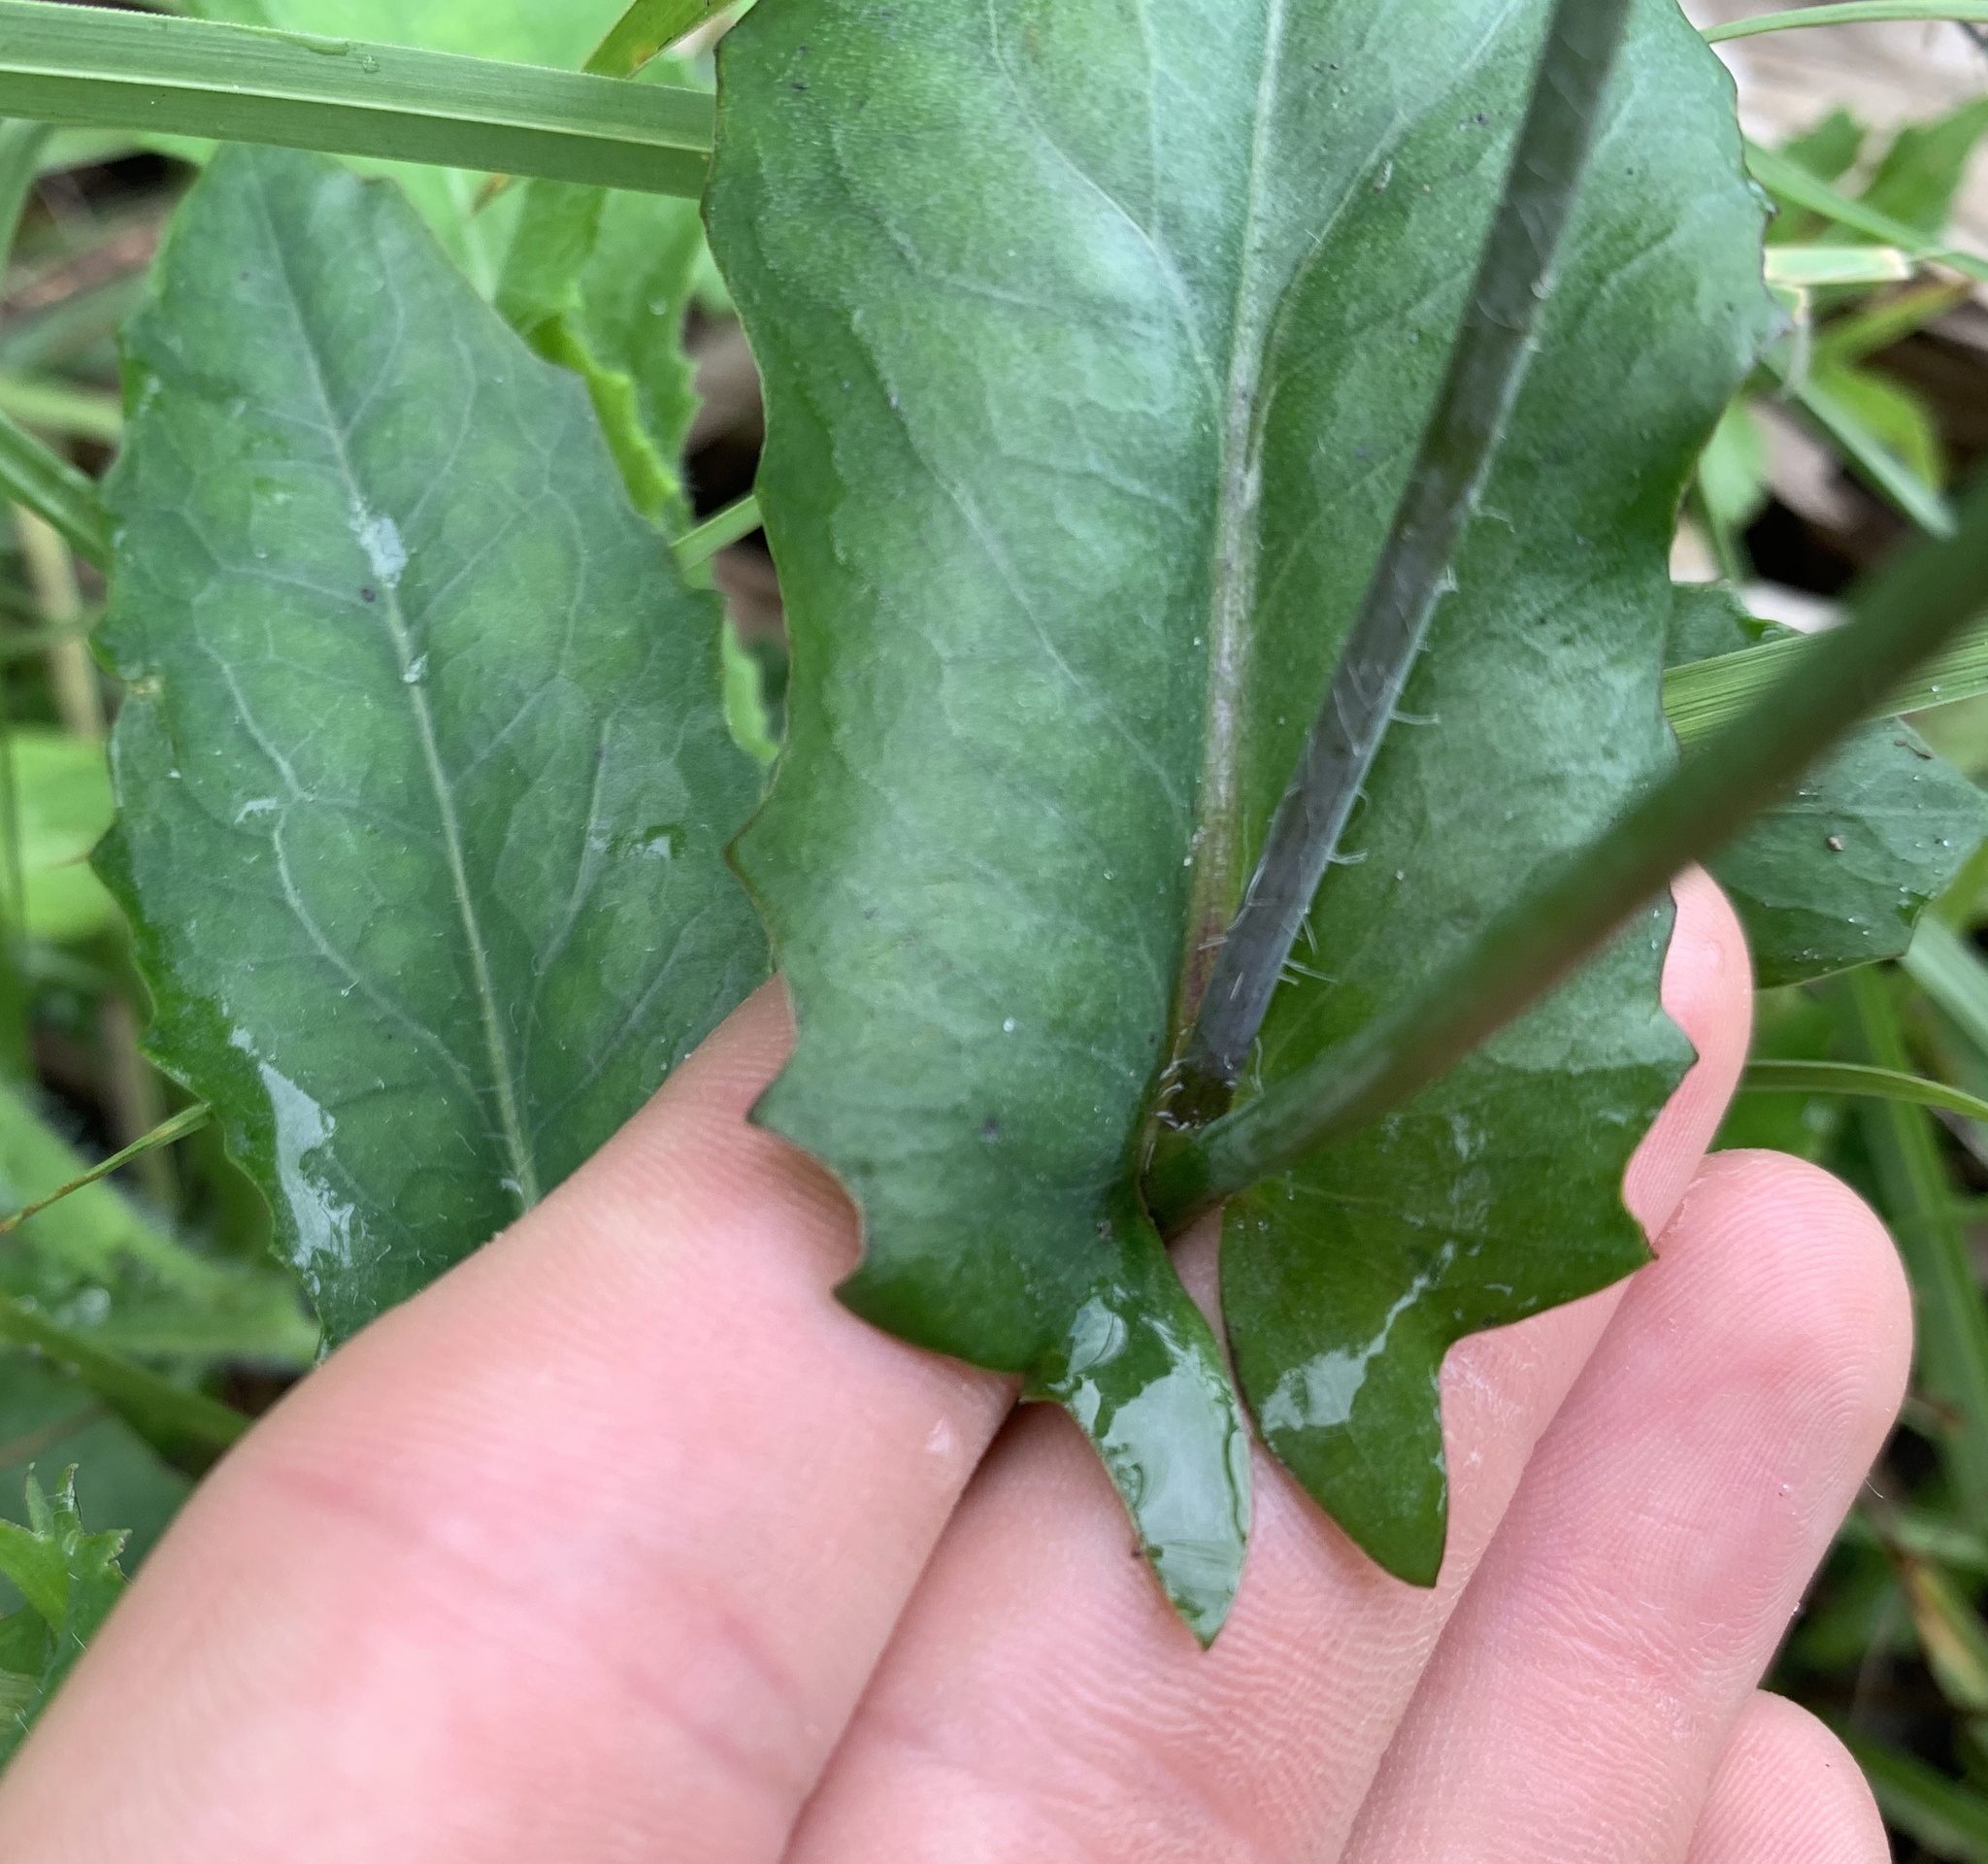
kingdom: Plantae
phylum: Tracheophyta
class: Magnoliopsida
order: Asterales
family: Asteraceae
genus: Emilia
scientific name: Emilia fosbergii
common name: Florida tasselflower
